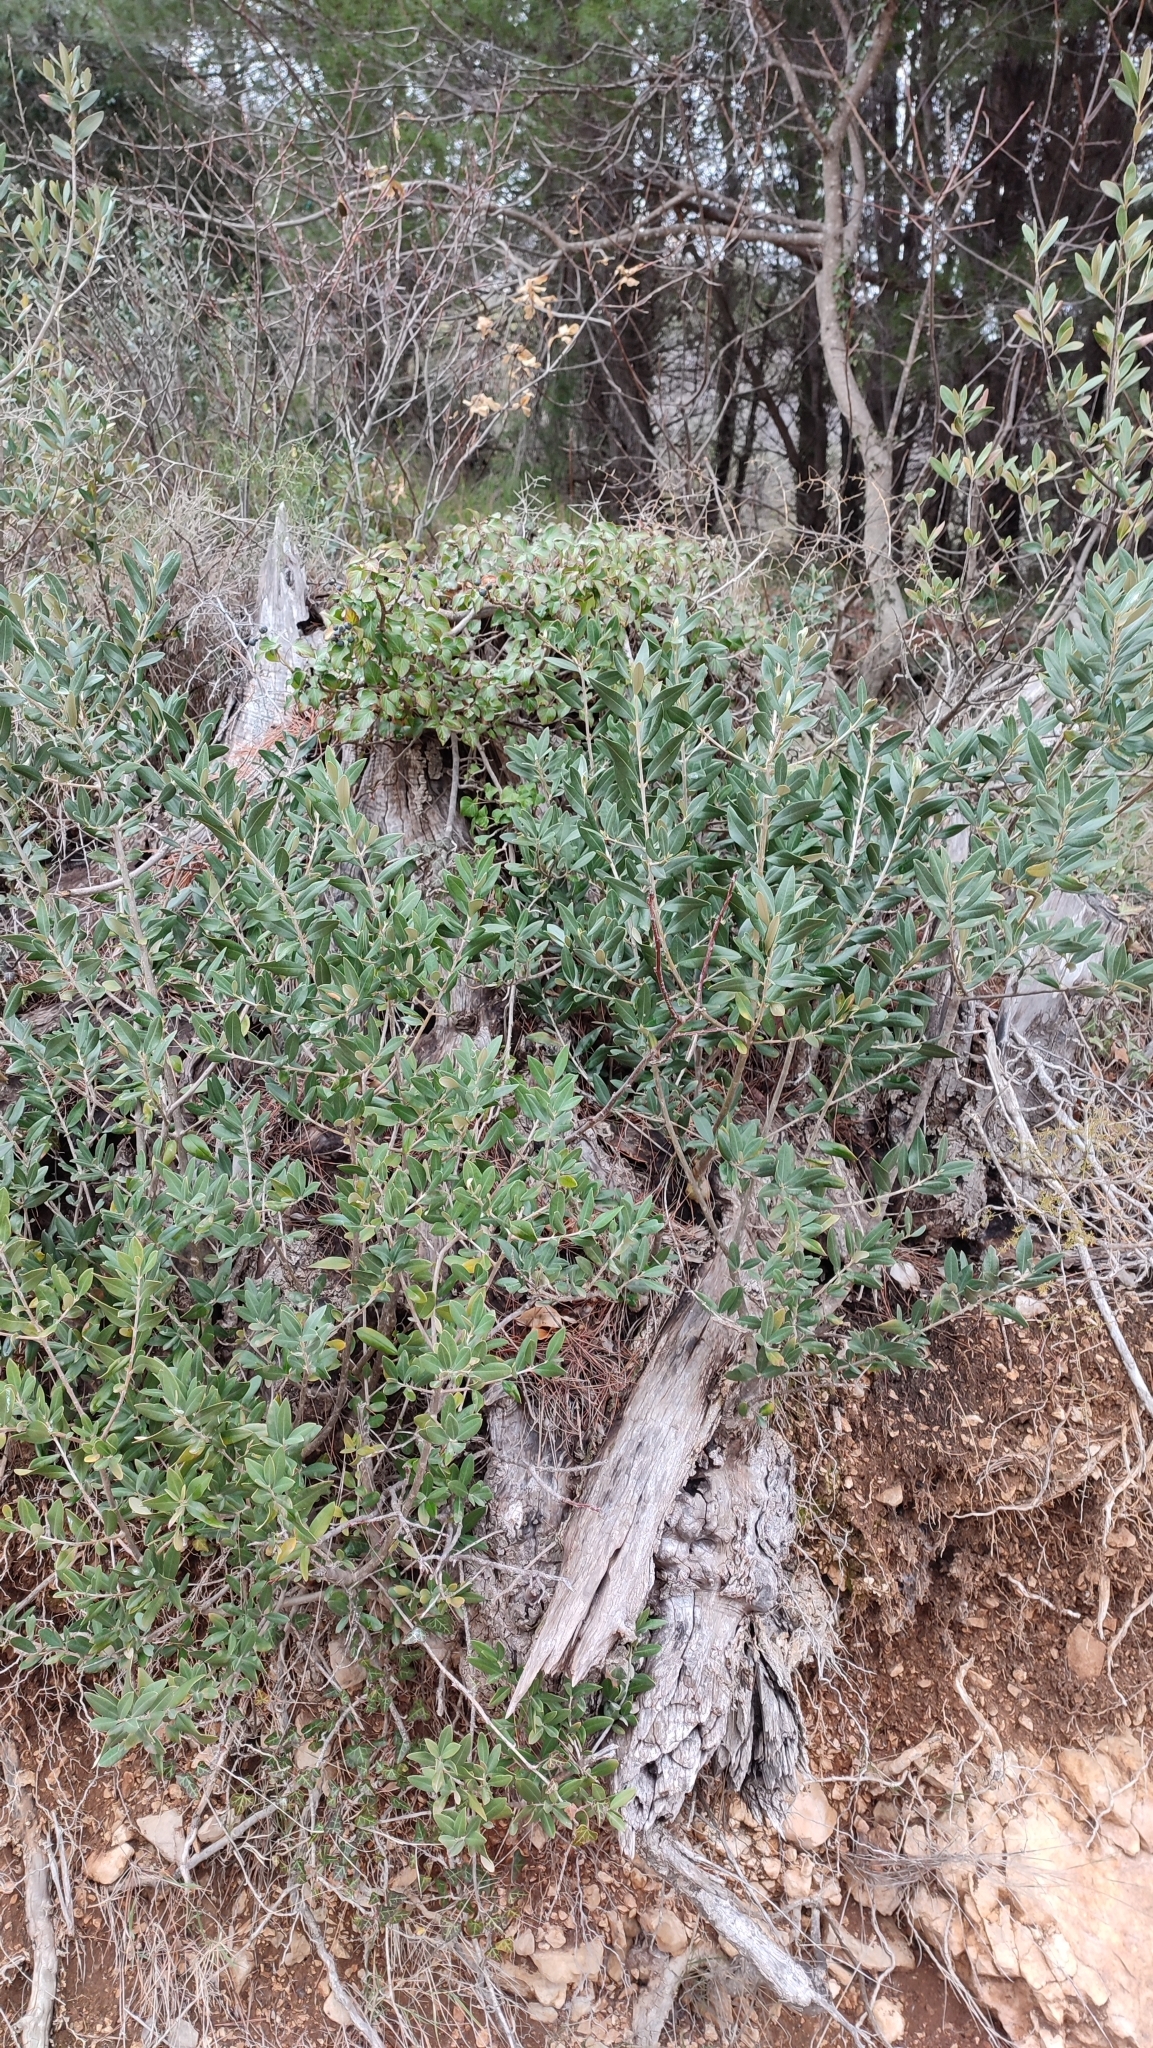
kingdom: Plantae
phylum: Tracheophyta
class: Magnoliopsida
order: Lamiales
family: Oleaceae
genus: Olea
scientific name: Olea europaea
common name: Olive
